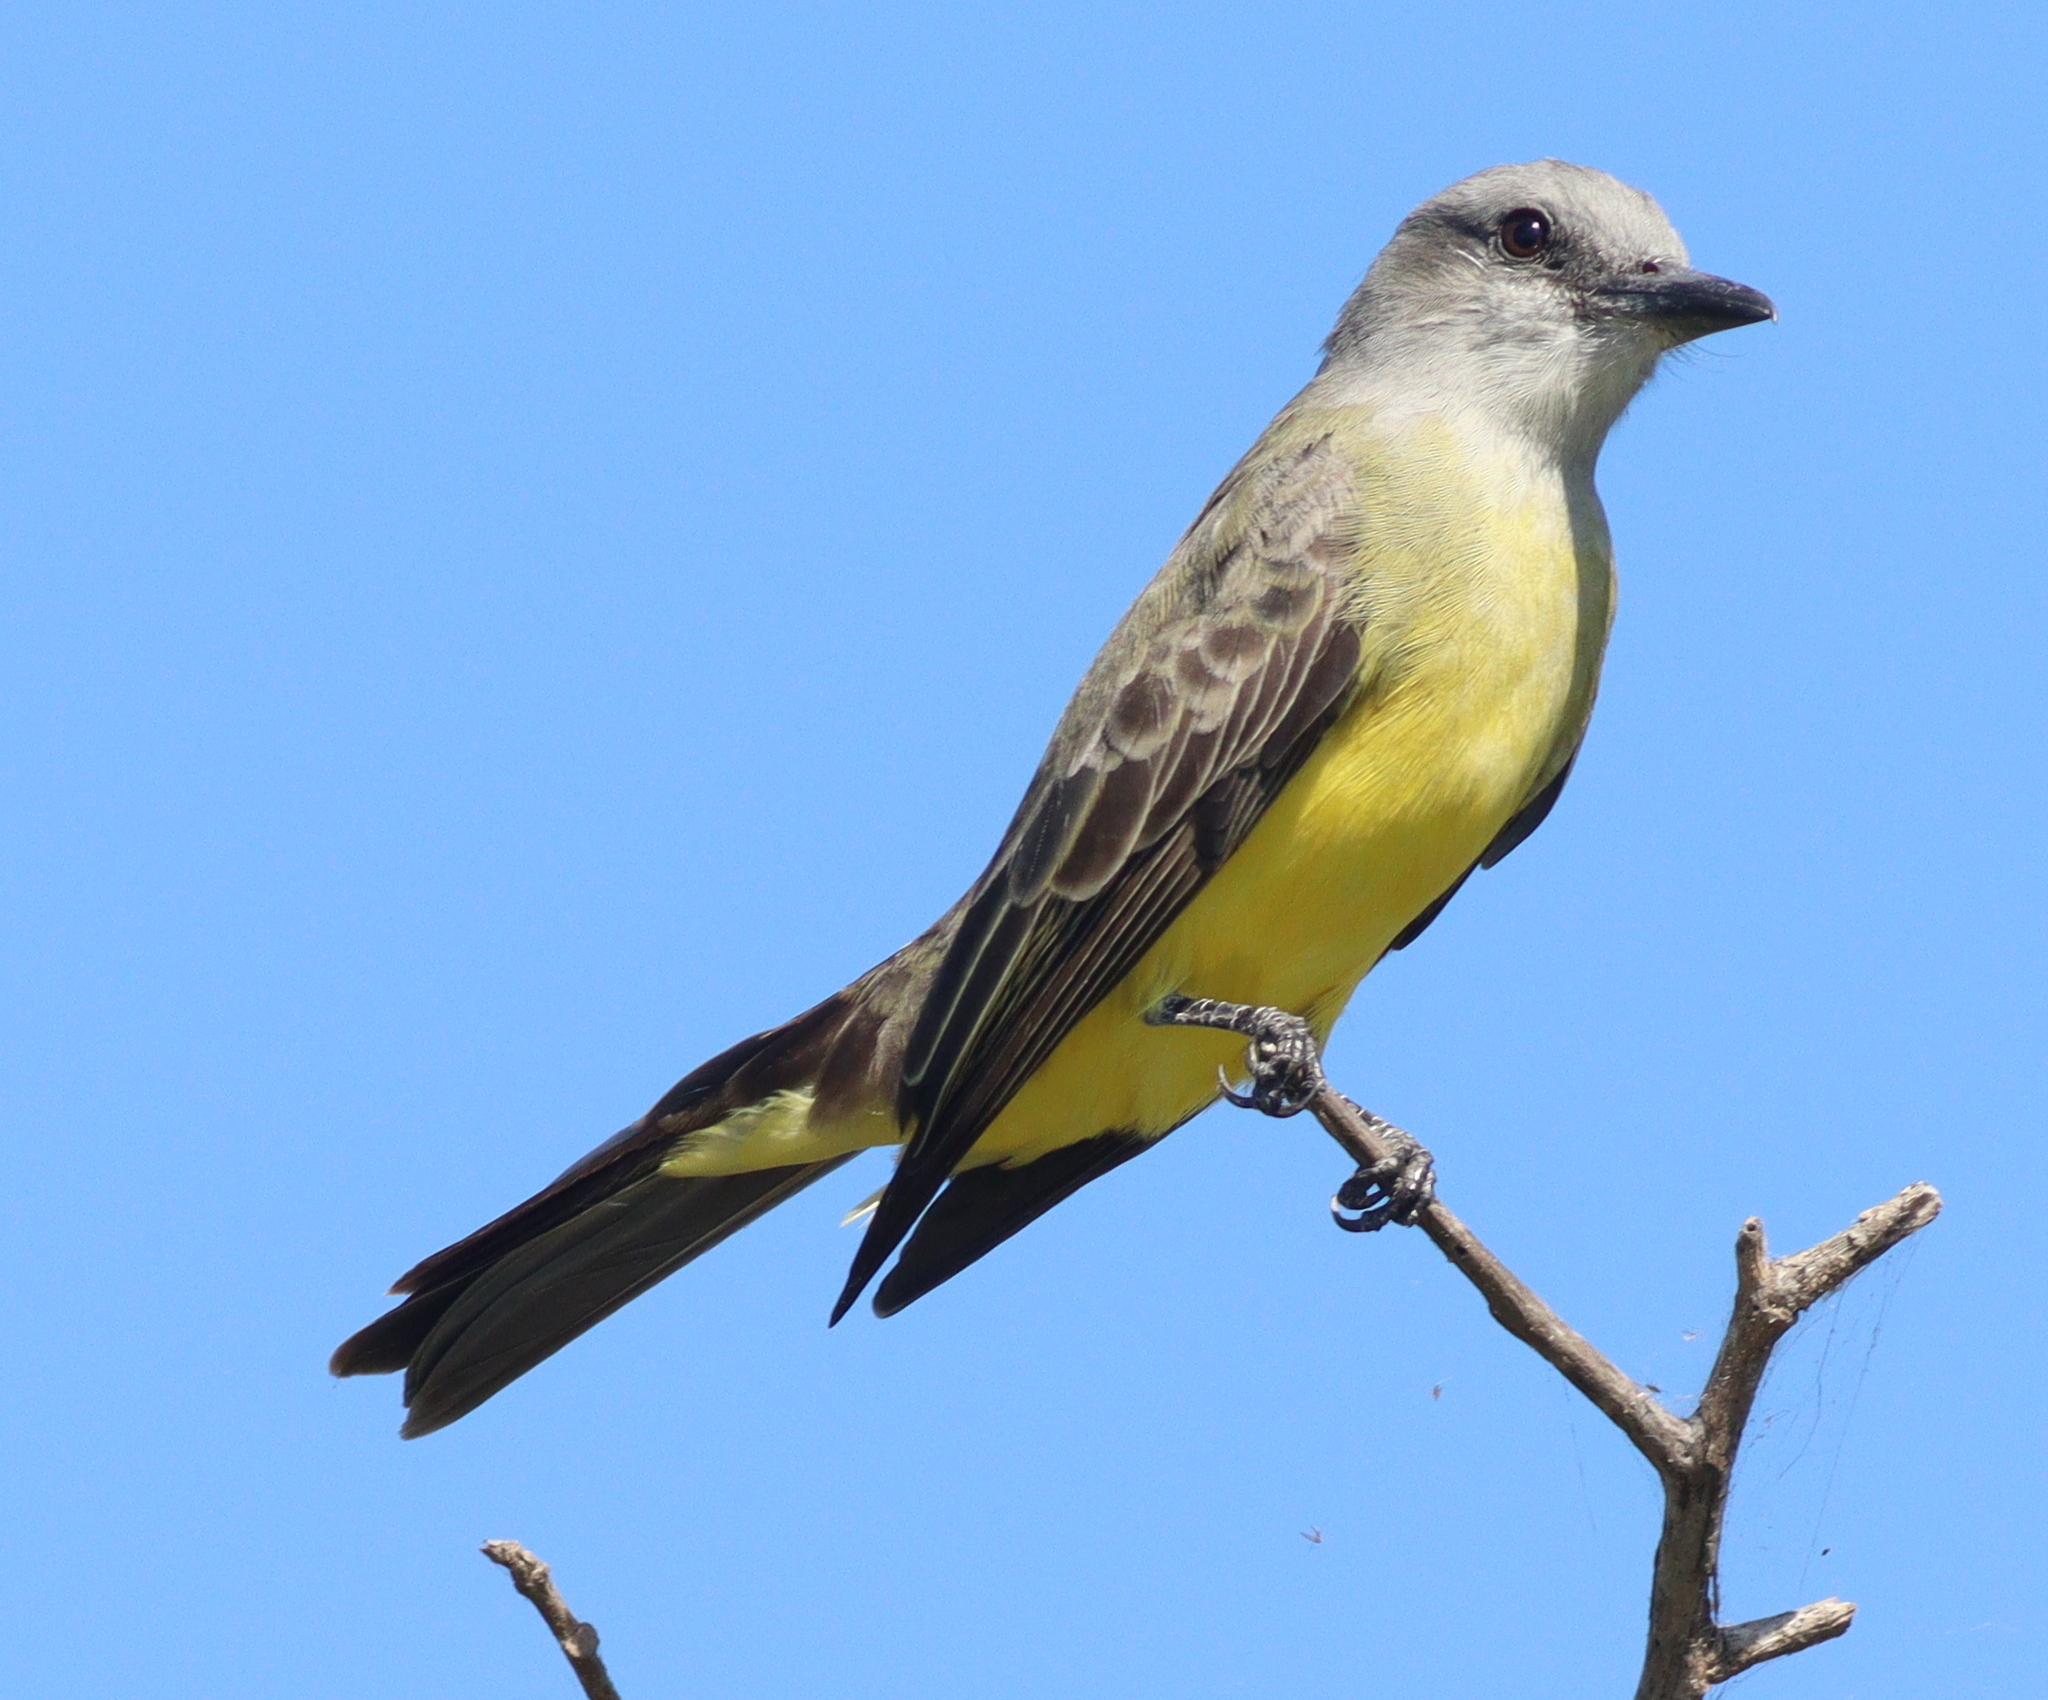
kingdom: Animalia
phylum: Chordata
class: Aves
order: Passeriformes
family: Tyrannidae
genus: Tyrannus
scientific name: Tyrannus melancholicus
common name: Tropical kingbird
